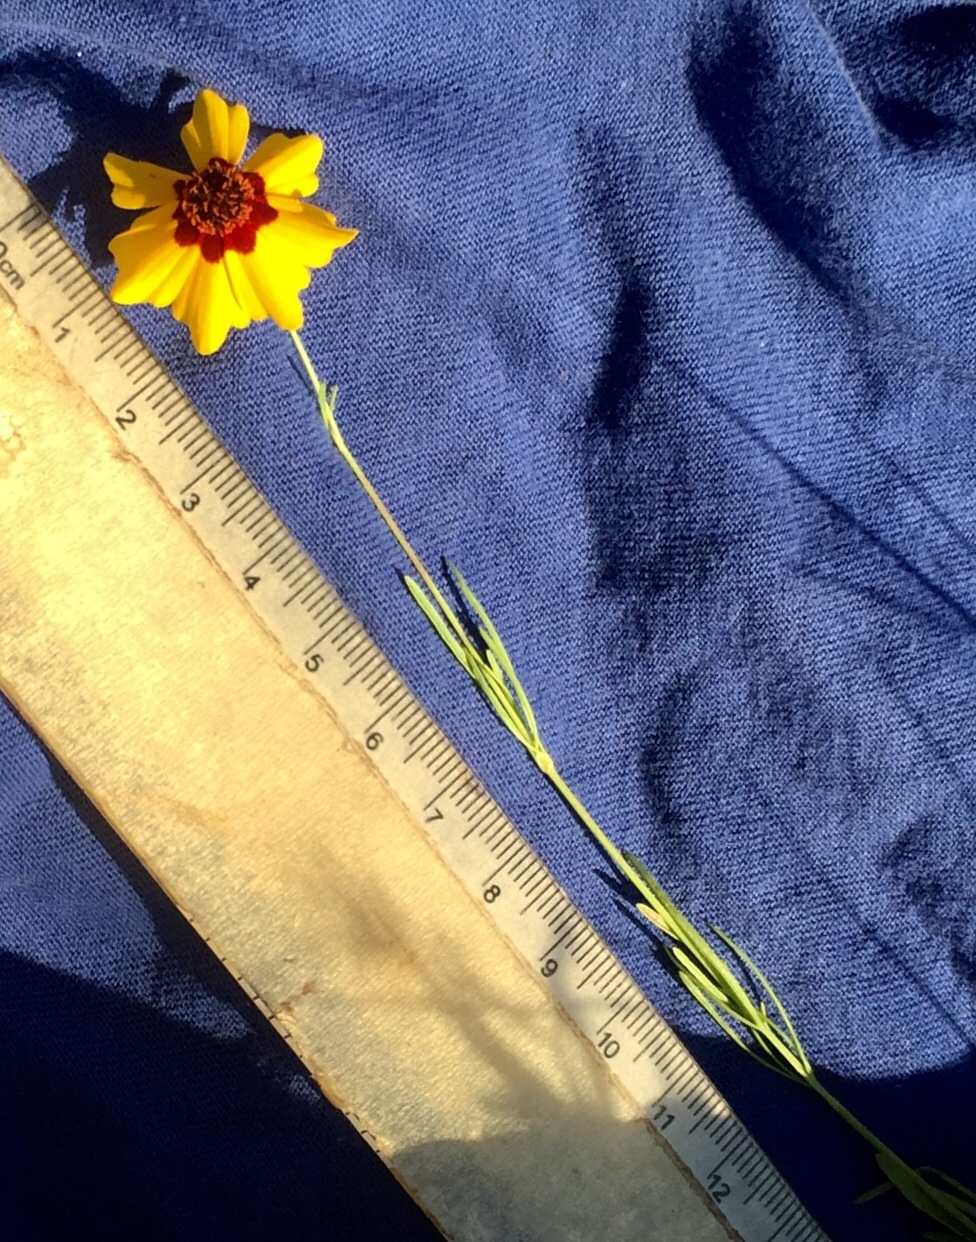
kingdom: Plantae
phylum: Tracheophyta
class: Magnoliopsida
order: Asterales
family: Asteraceae
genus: Coreopsis
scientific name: Coreopsis tinctoria
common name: Garden tickseed
